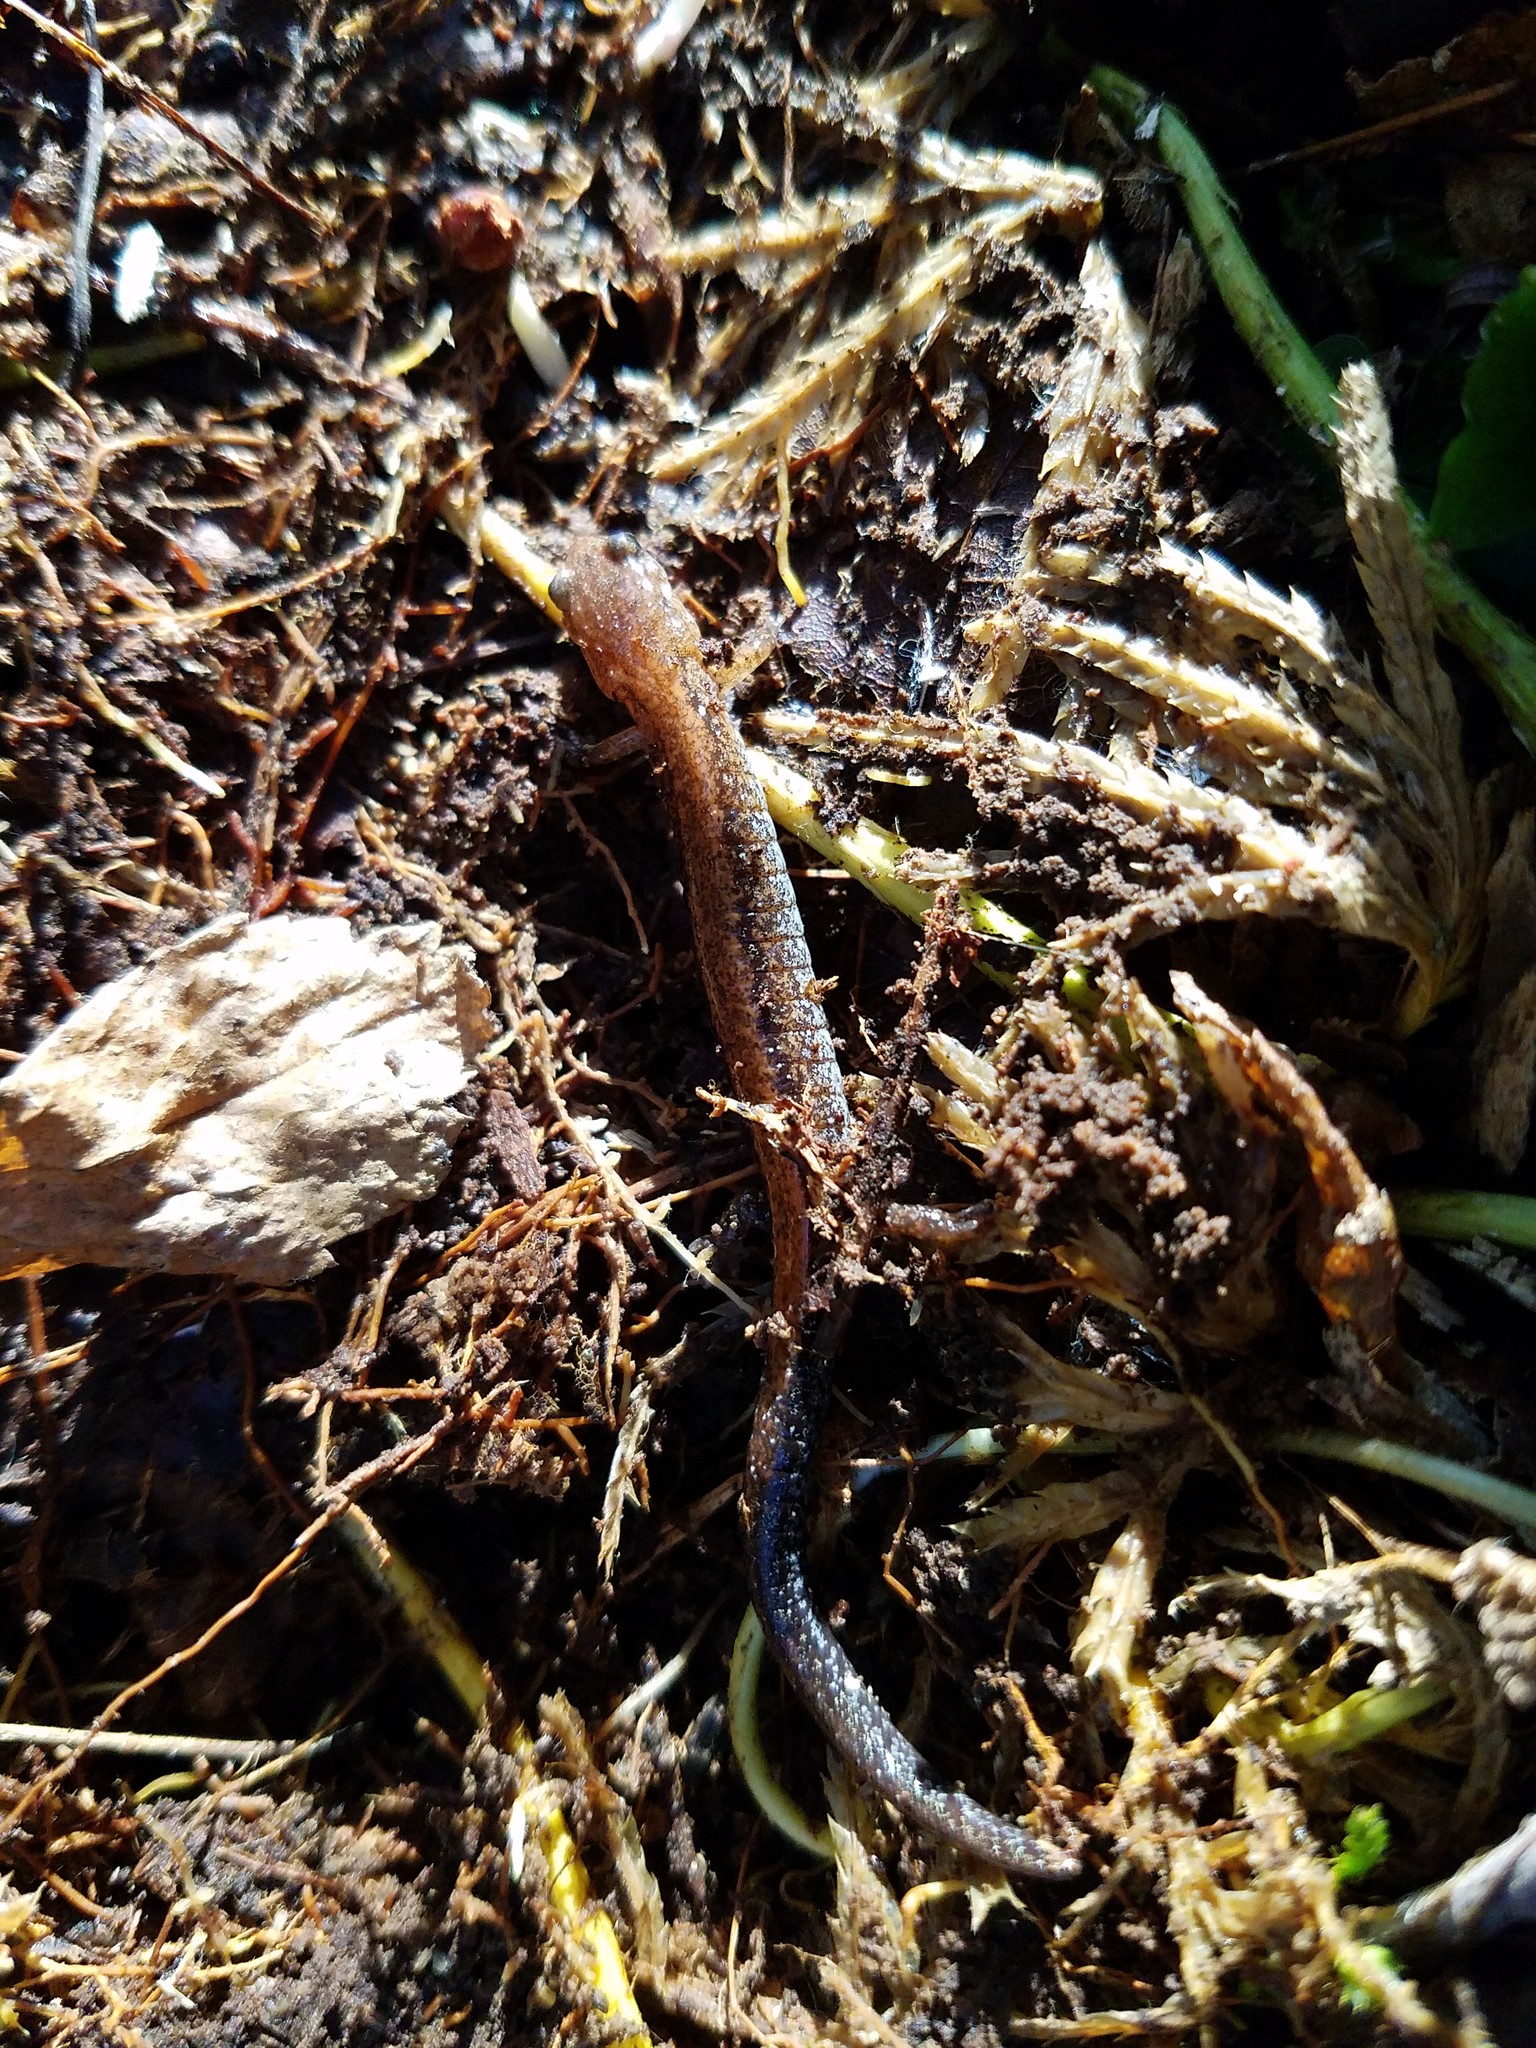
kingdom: Animalia
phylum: Chordata
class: Amphibia
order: Caudata
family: Plethodontidae
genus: Plethodon
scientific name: Plethodon cinereus
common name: Redback salamander
